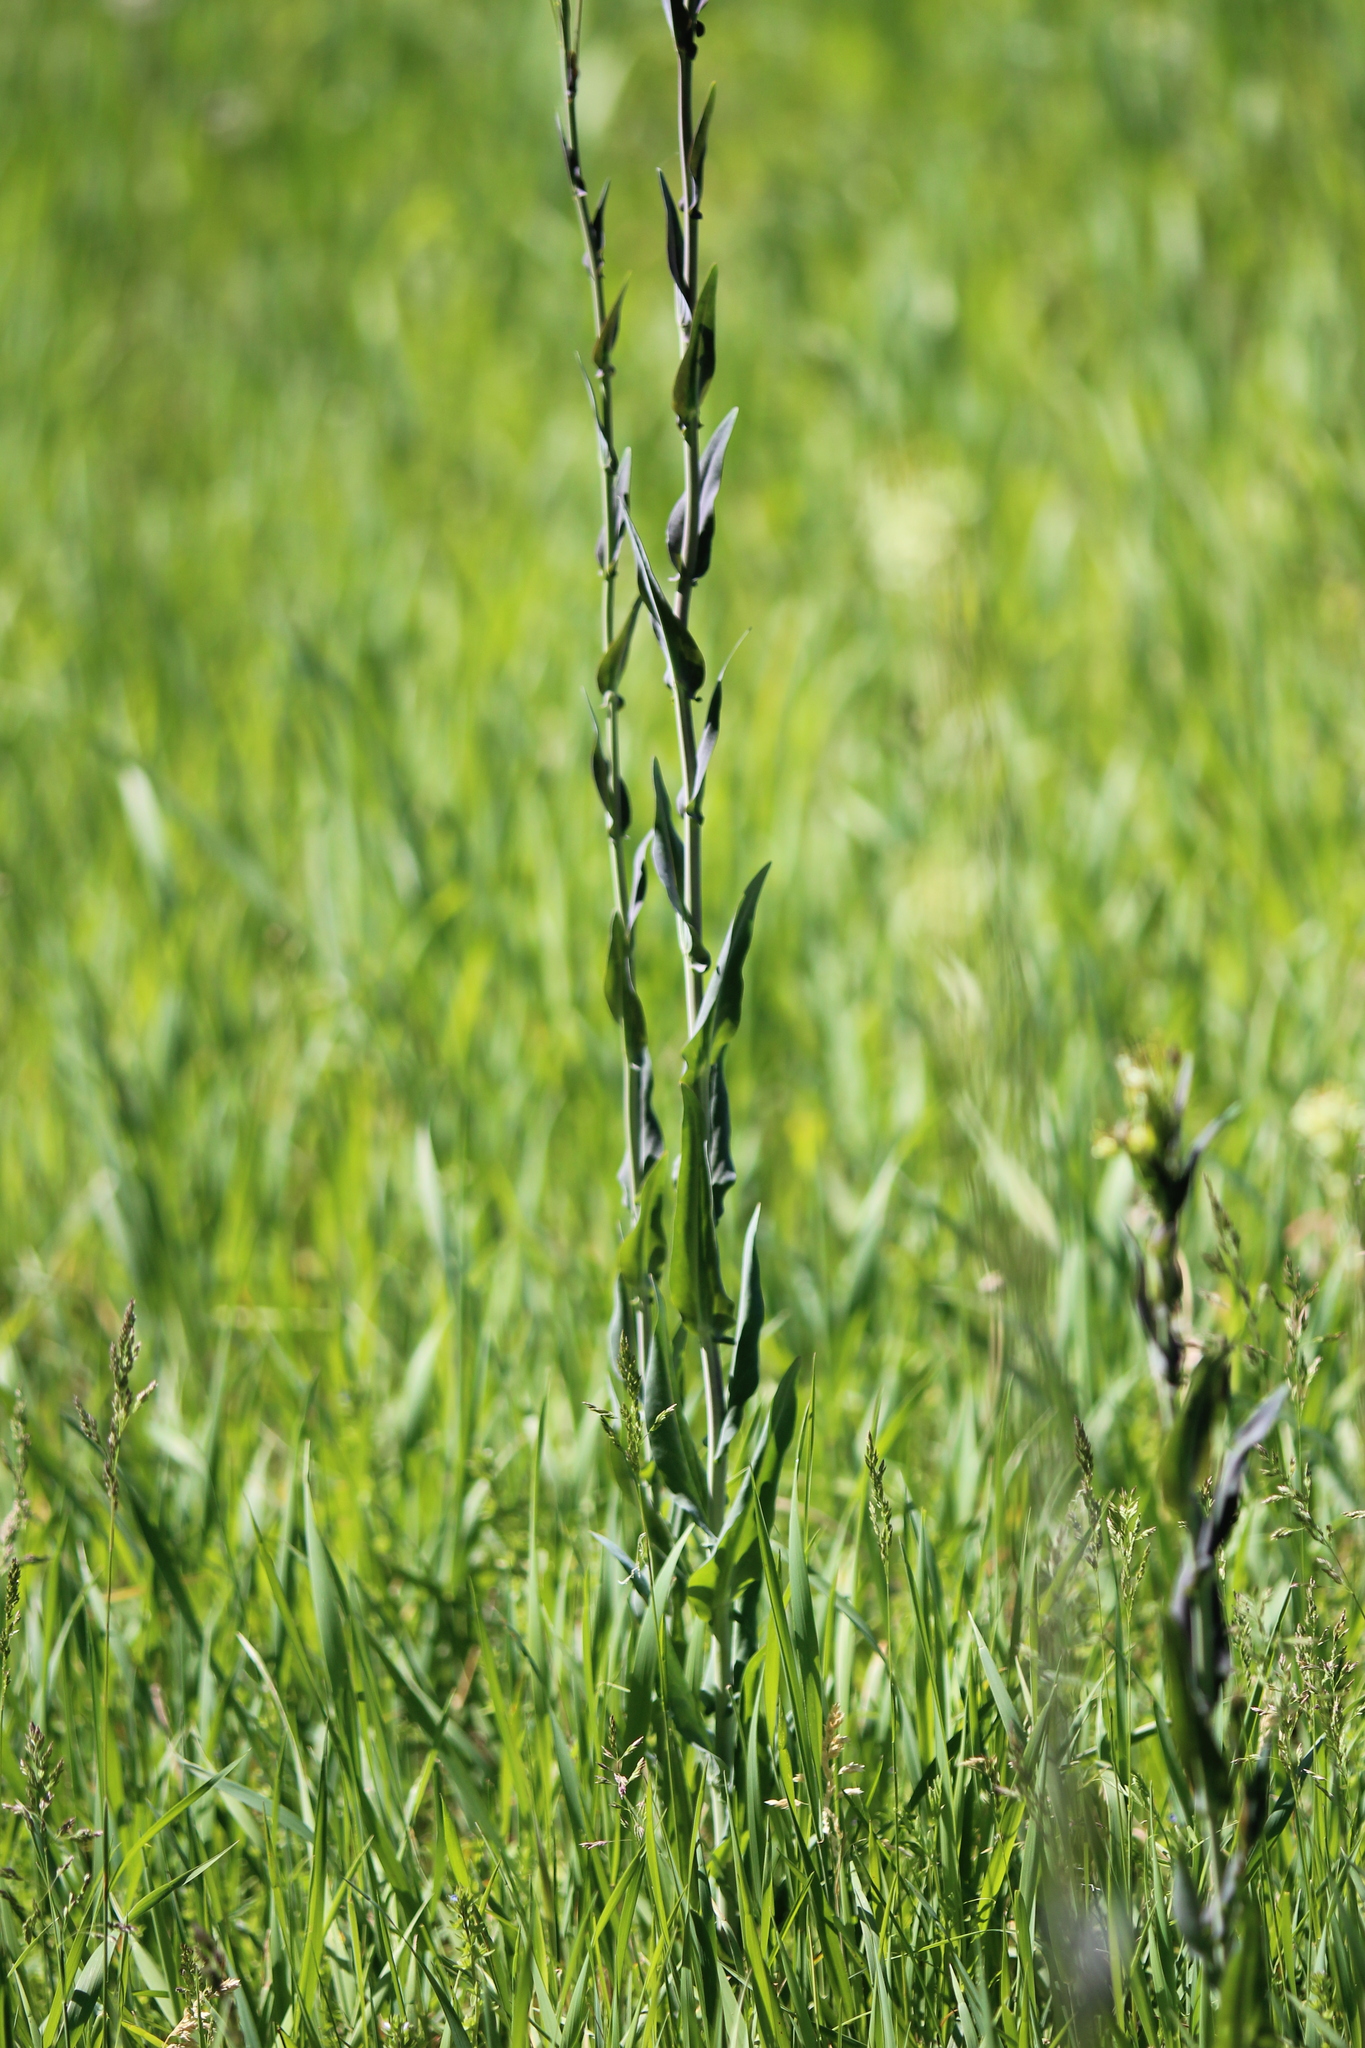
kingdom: Plantae
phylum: Tracheophyta
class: Magnoliopsida
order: Brassicales
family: Brassicaceae
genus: Turritis
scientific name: Turritis glabra
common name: Tower rockcress
